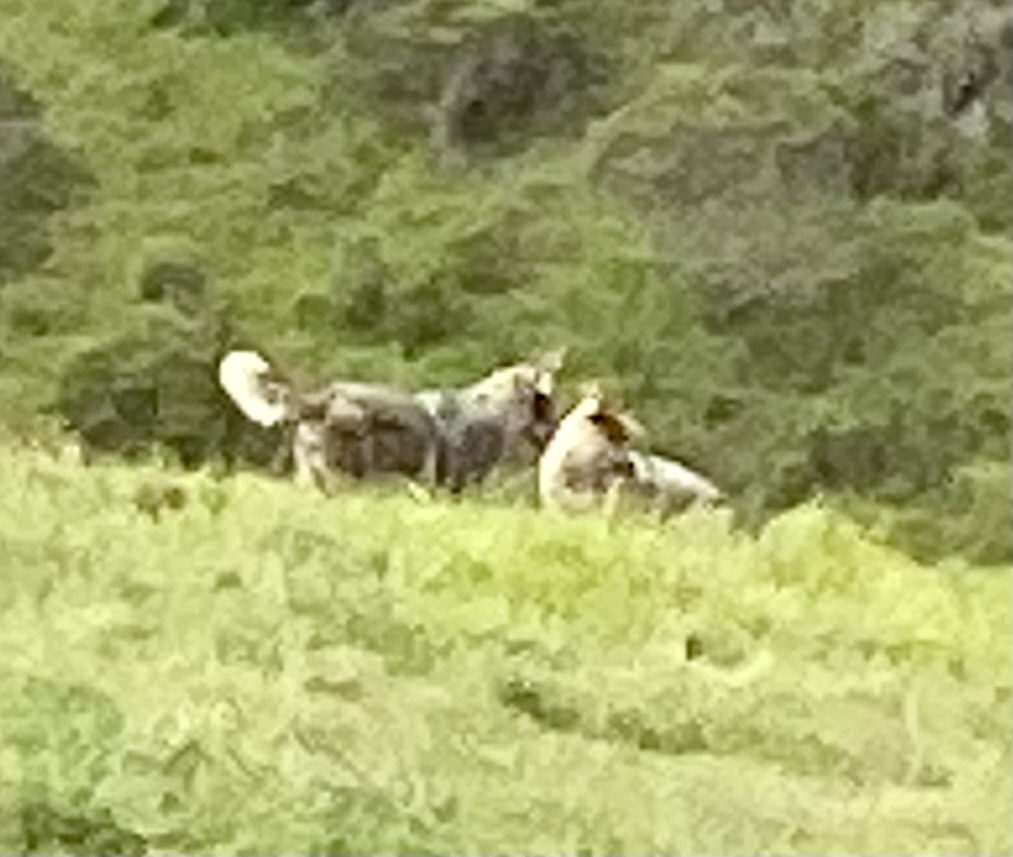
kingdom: Animalia
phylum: Chordata
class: Mammalia
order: Carnivora
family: Canidae
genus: Canis
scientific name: Canis latrans
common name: Coyote
